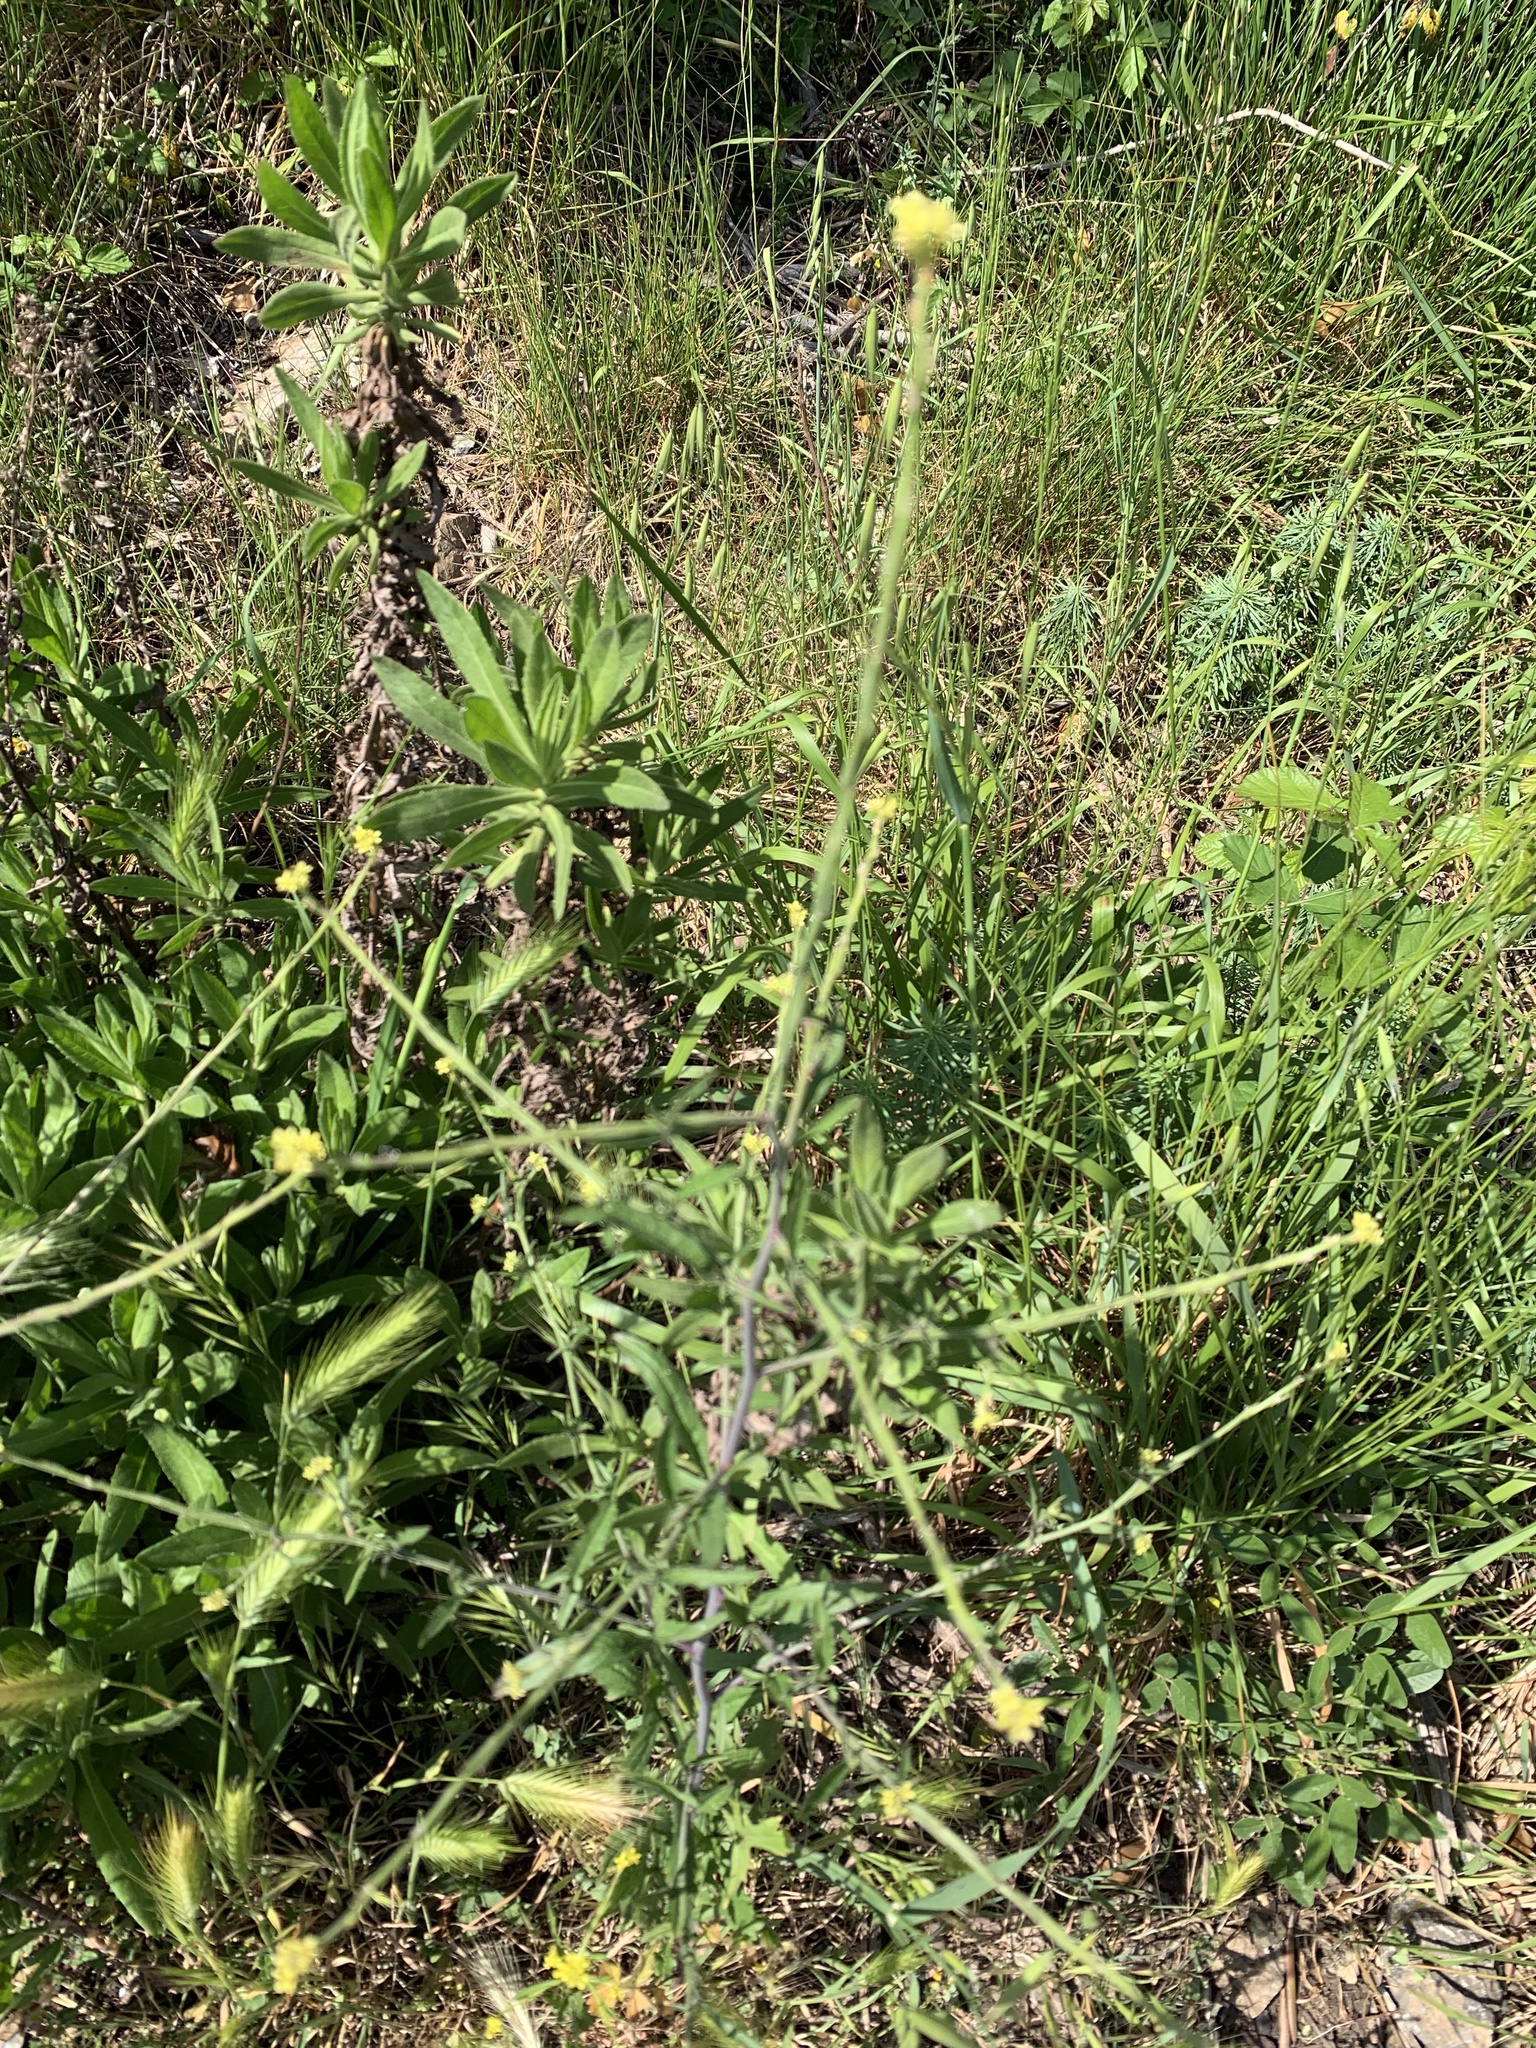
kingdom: Plantae
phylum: Tracheophyta
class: Magnoliopsida
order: Brassicales
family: Brassicaceae
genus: Sisymbrium
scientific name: Sisymbrium officinale
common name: Hedge mustard
